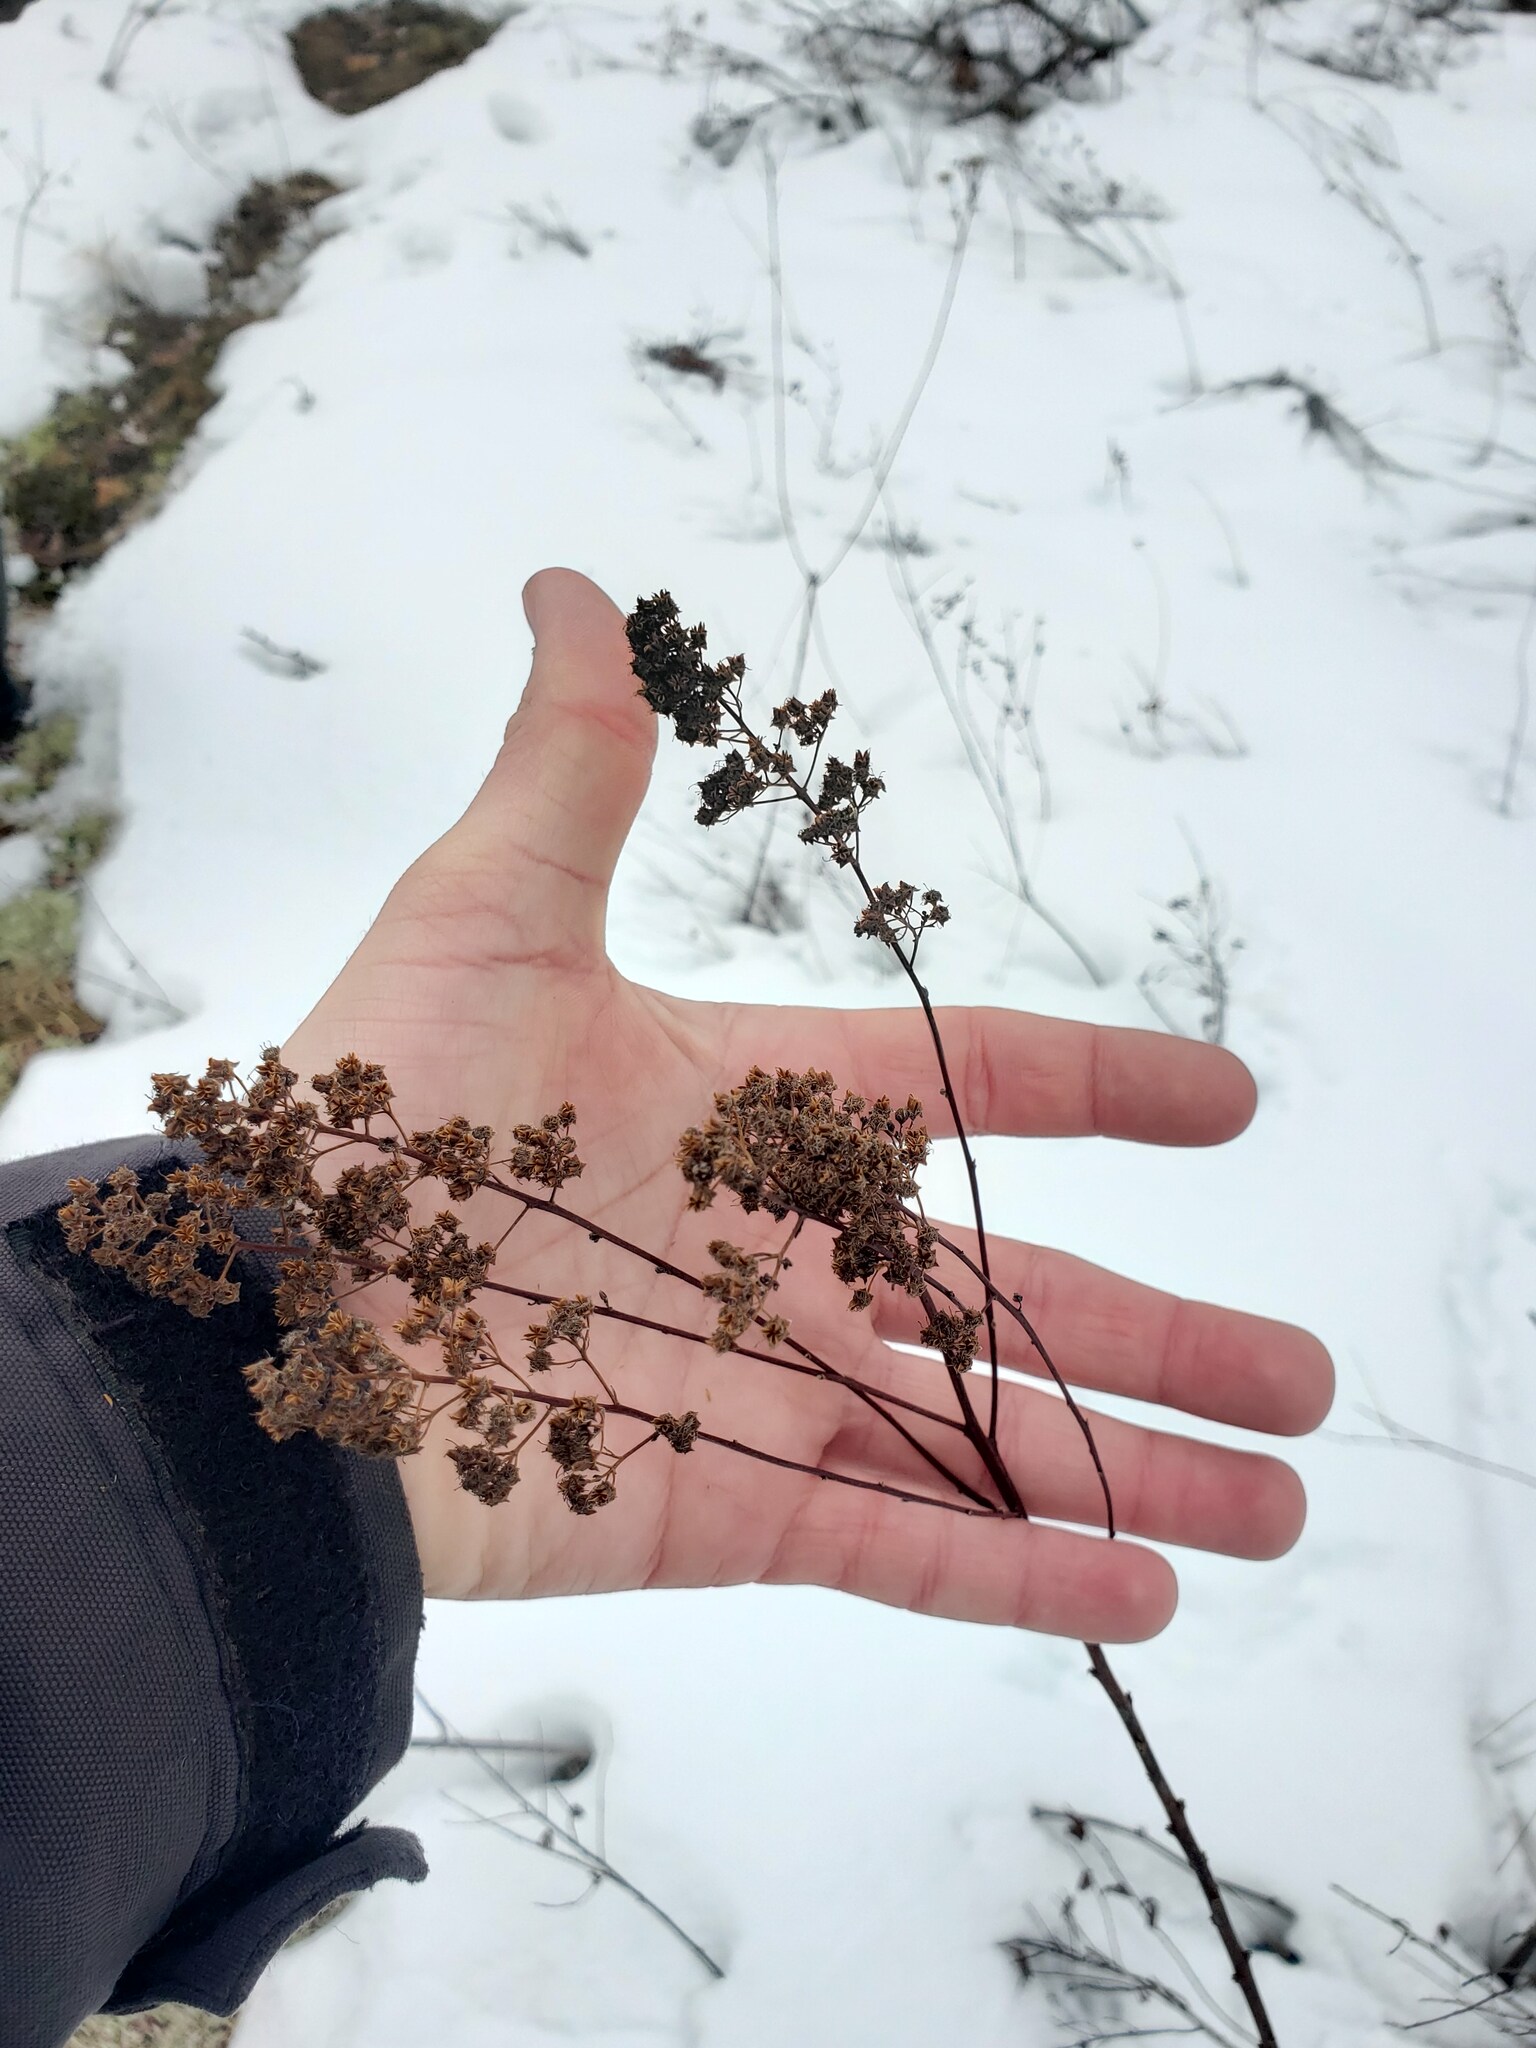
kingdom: Plantae
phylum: Tracheophyta
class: Magnoliopsida
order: Rosales
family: Rosaceae
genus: Spiraea
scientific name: Spiraea alba
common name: Pale bridewort
